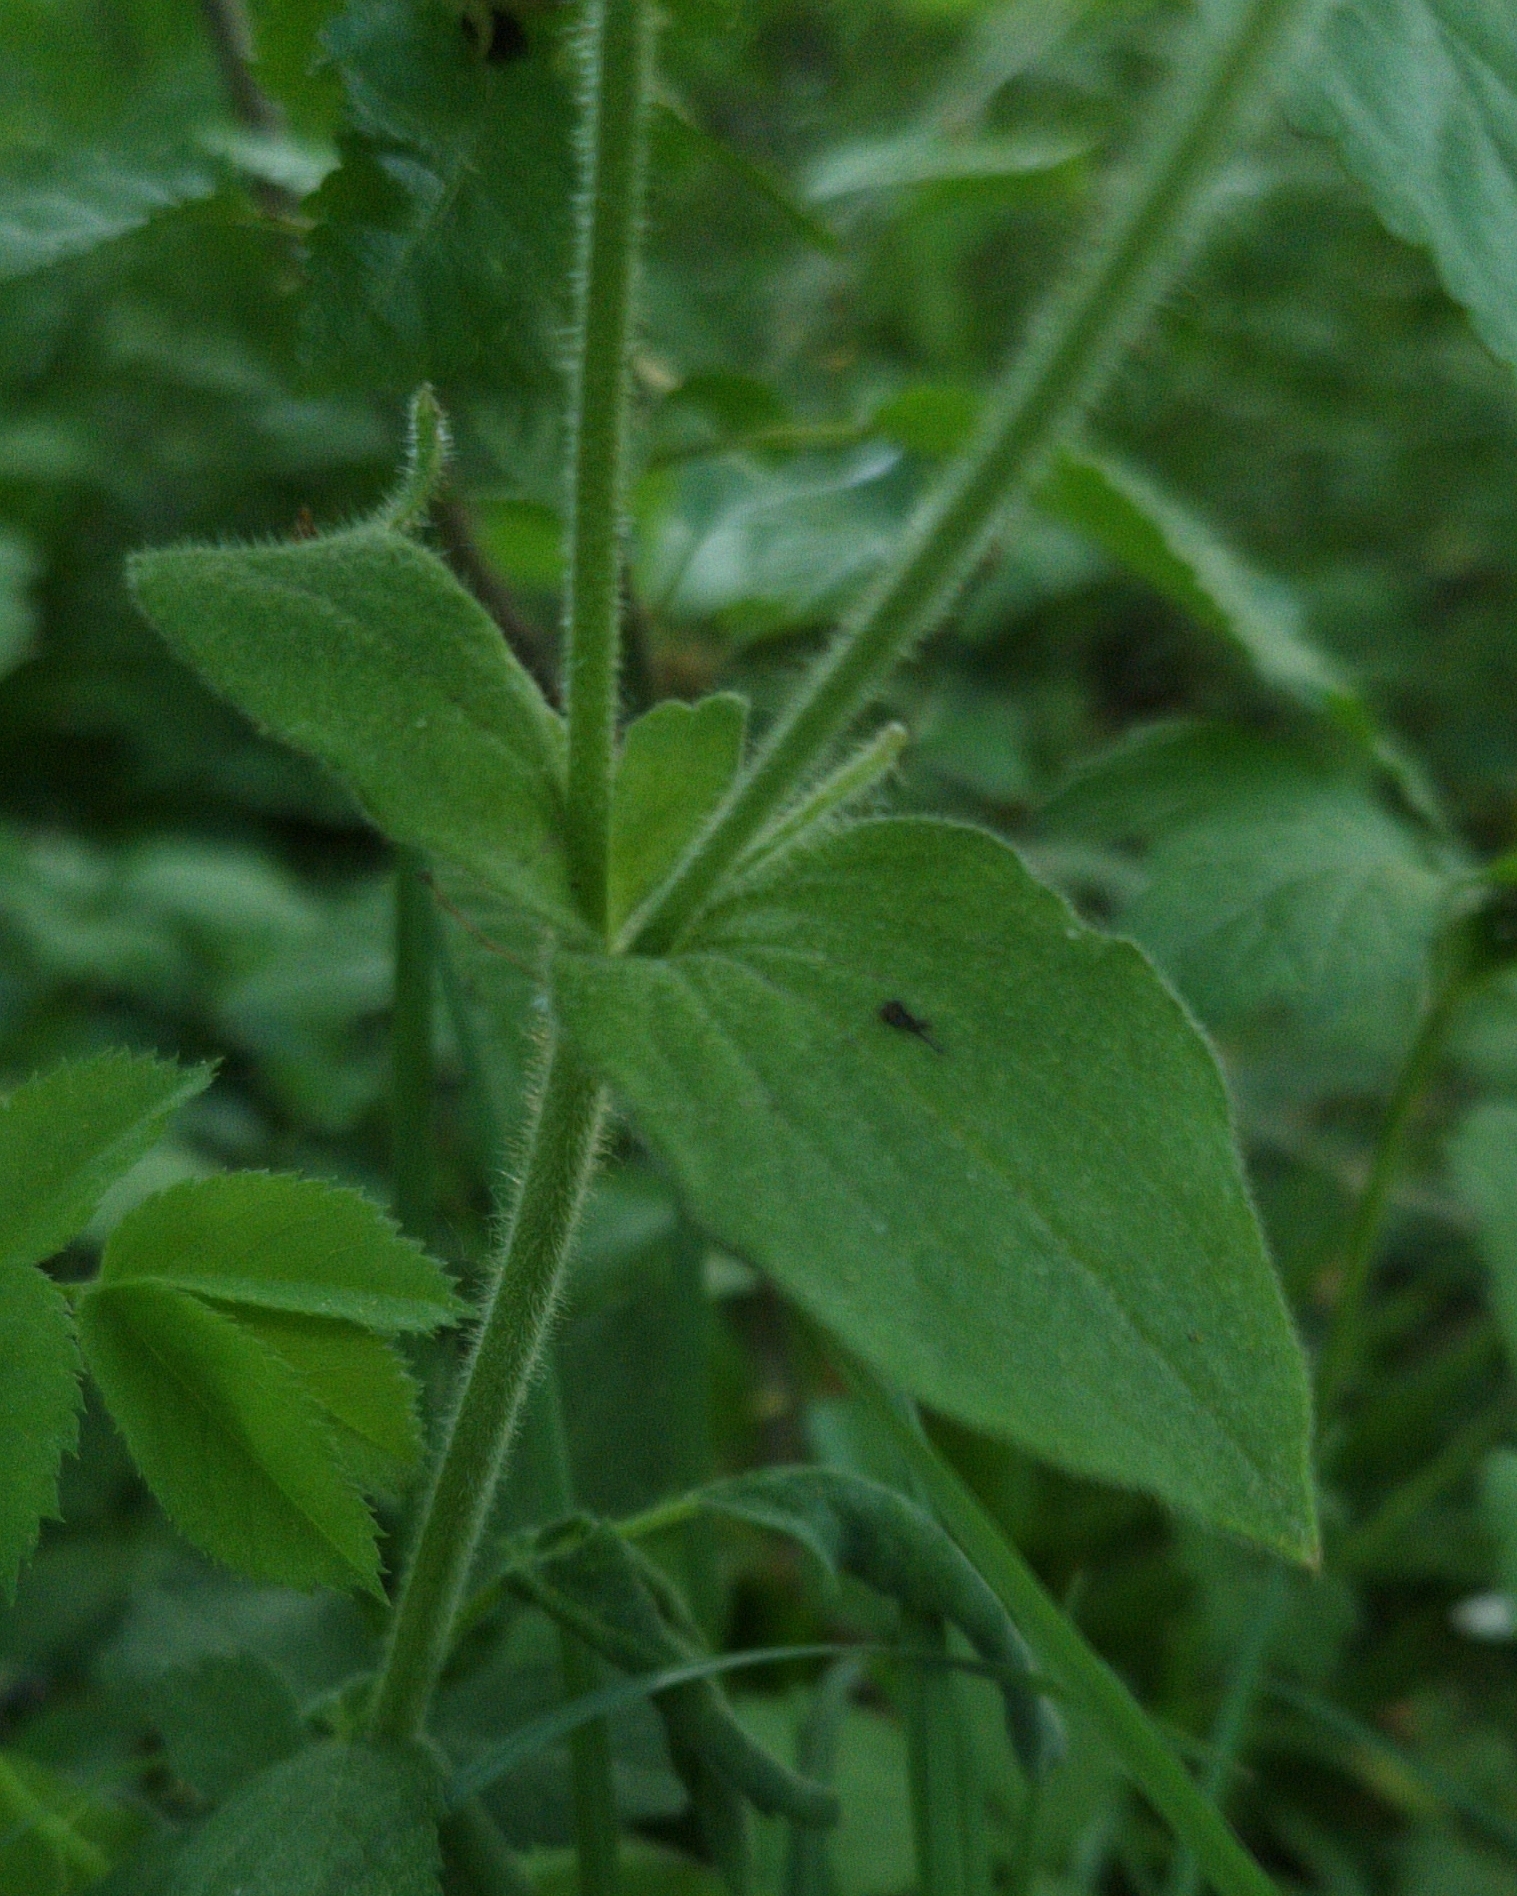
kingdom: Plantae
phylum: Tracheophyta
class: Magnoliopsida
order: Caryophyllales
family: Caryophyllaceae
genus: Silene
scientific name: Silene dioica
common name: Red campion
